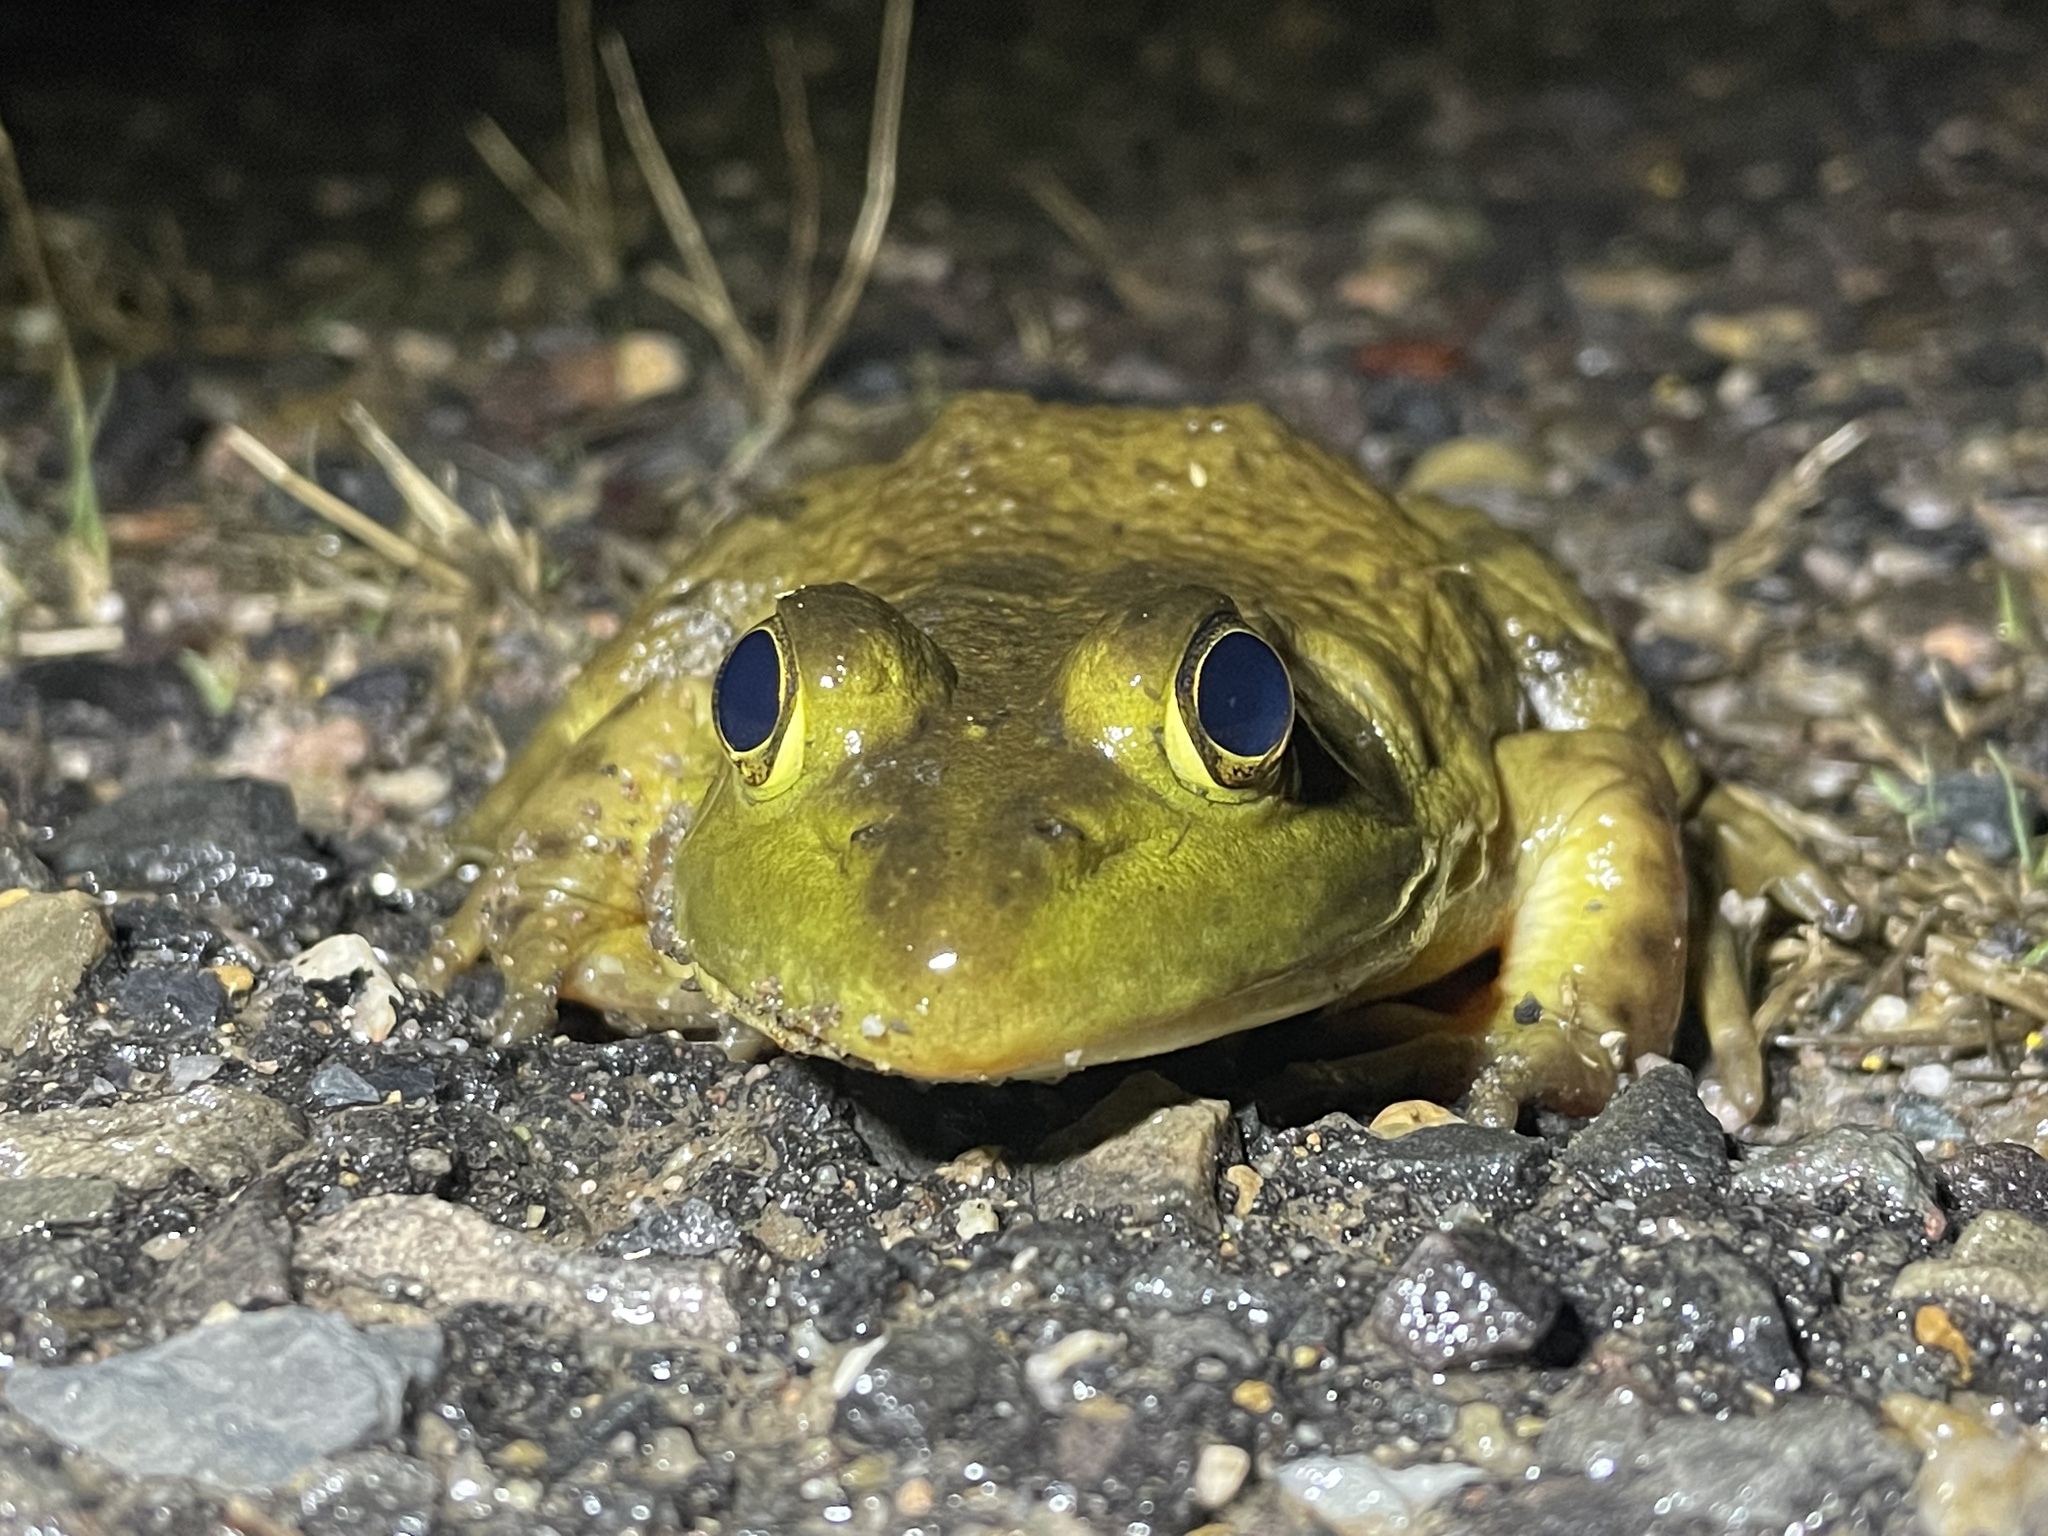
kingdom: Animalia
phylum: Chordata
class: Amphibia
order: Anura
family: Ranidae
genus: Lithobates
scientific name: Lithobates catesbeianus
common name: American bullfrog
